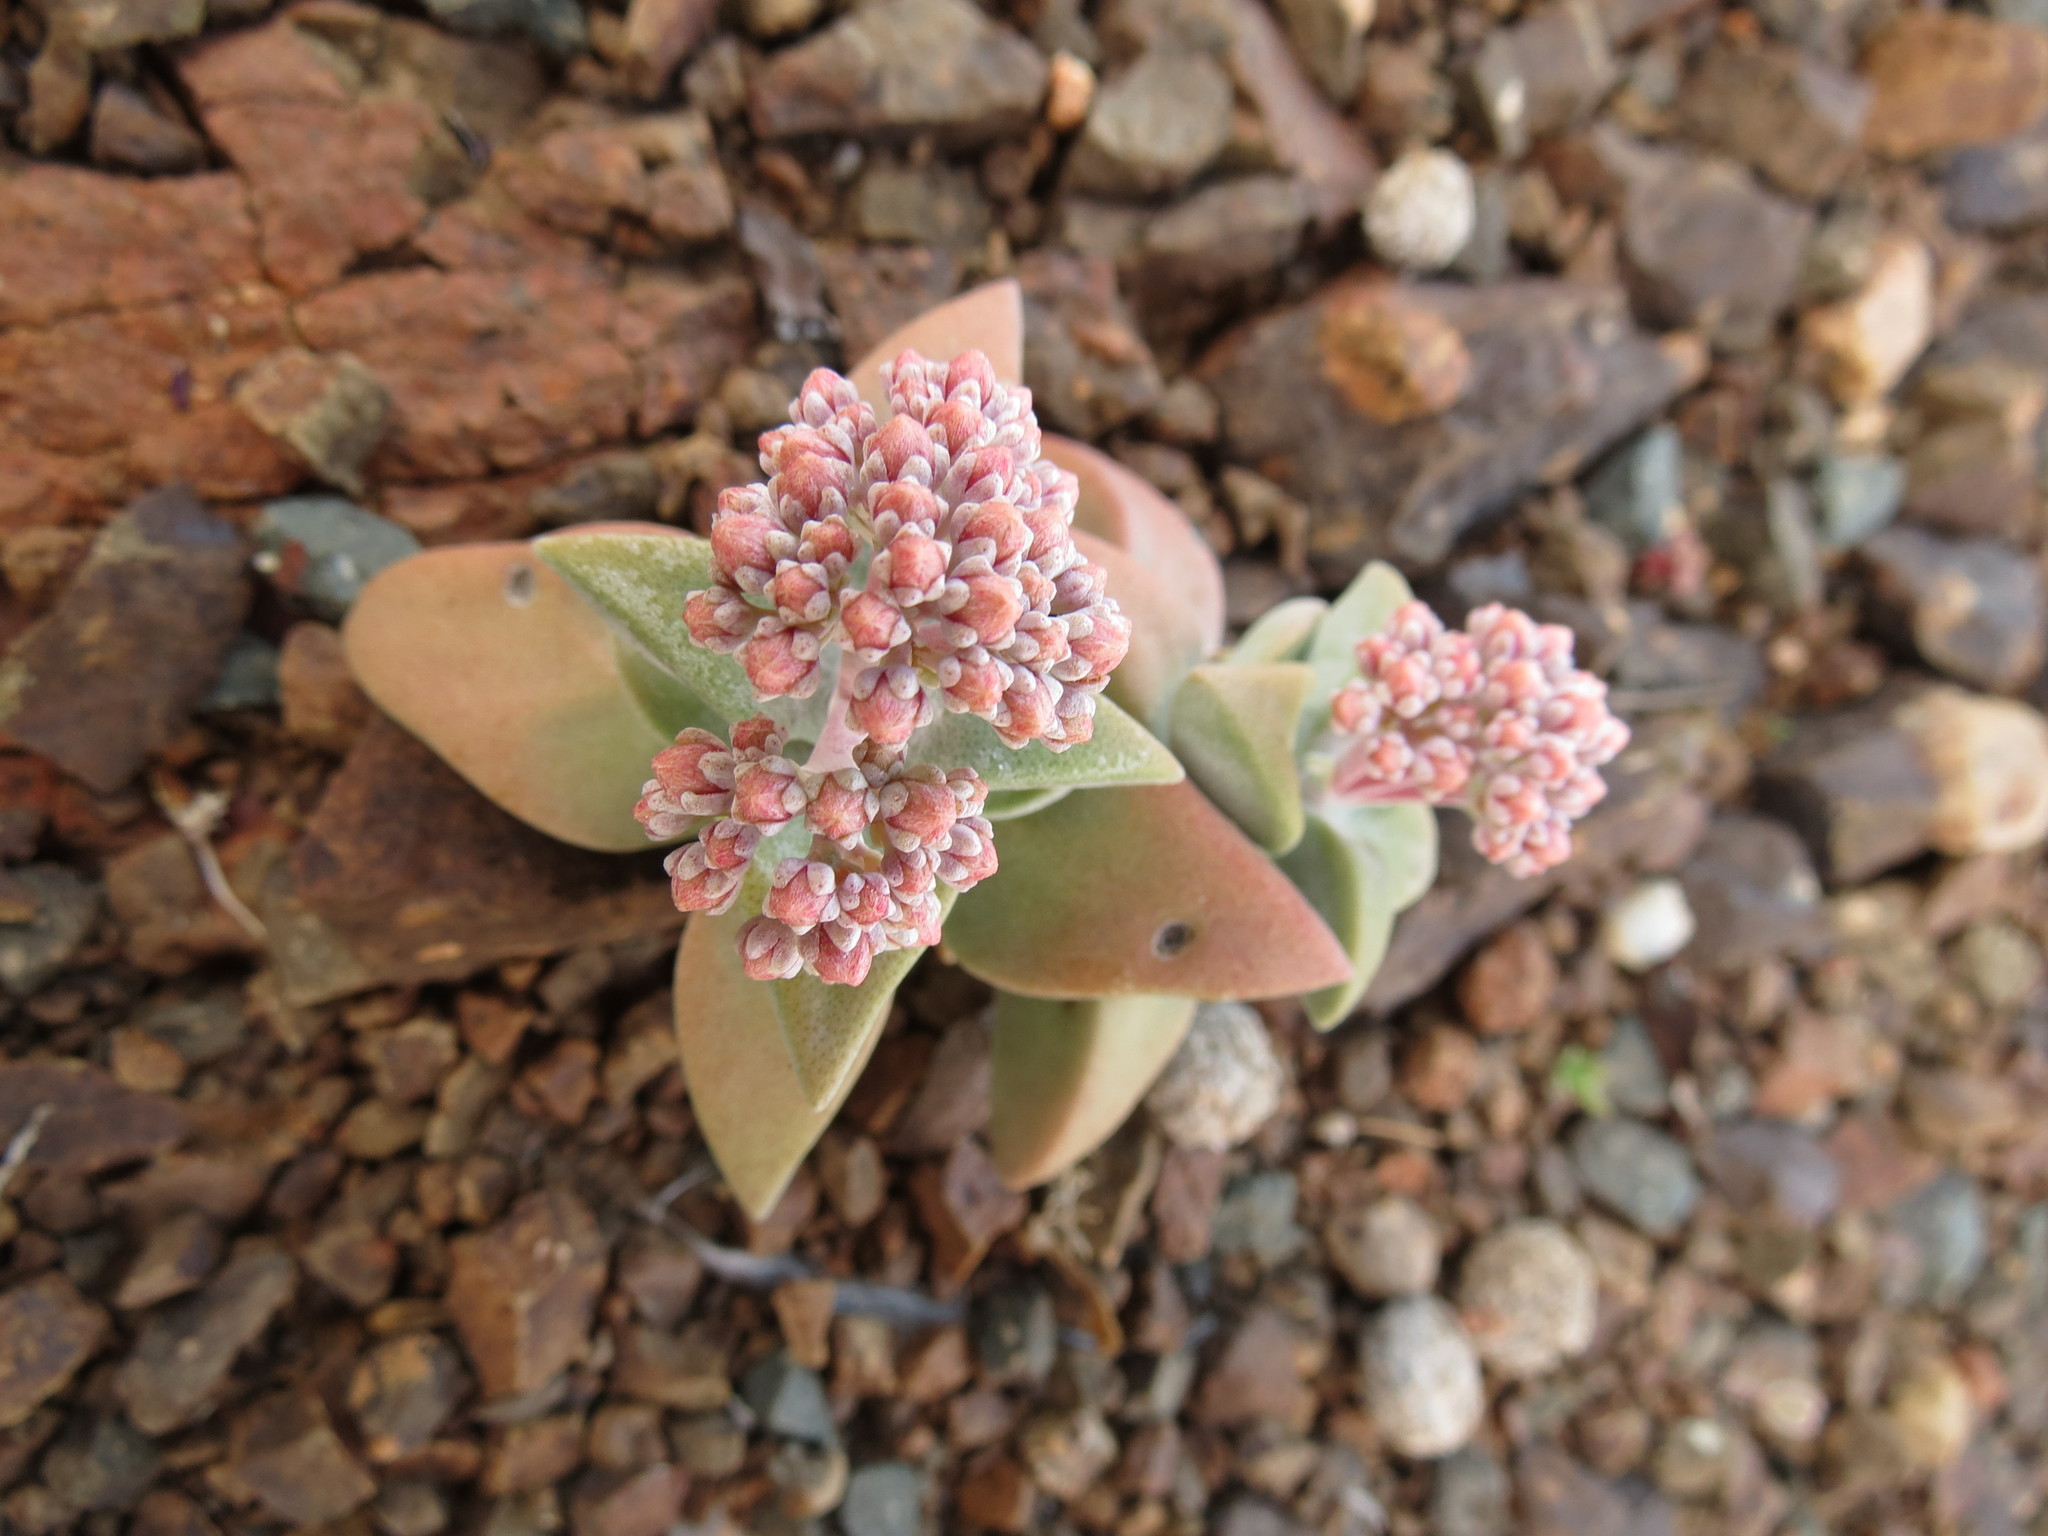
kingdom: Plantae
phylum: Tracheophyta
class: Magnoliopsida
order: Saxifragales
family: Crassulaceae
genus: Crassula
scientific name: Crassula deltoidea
